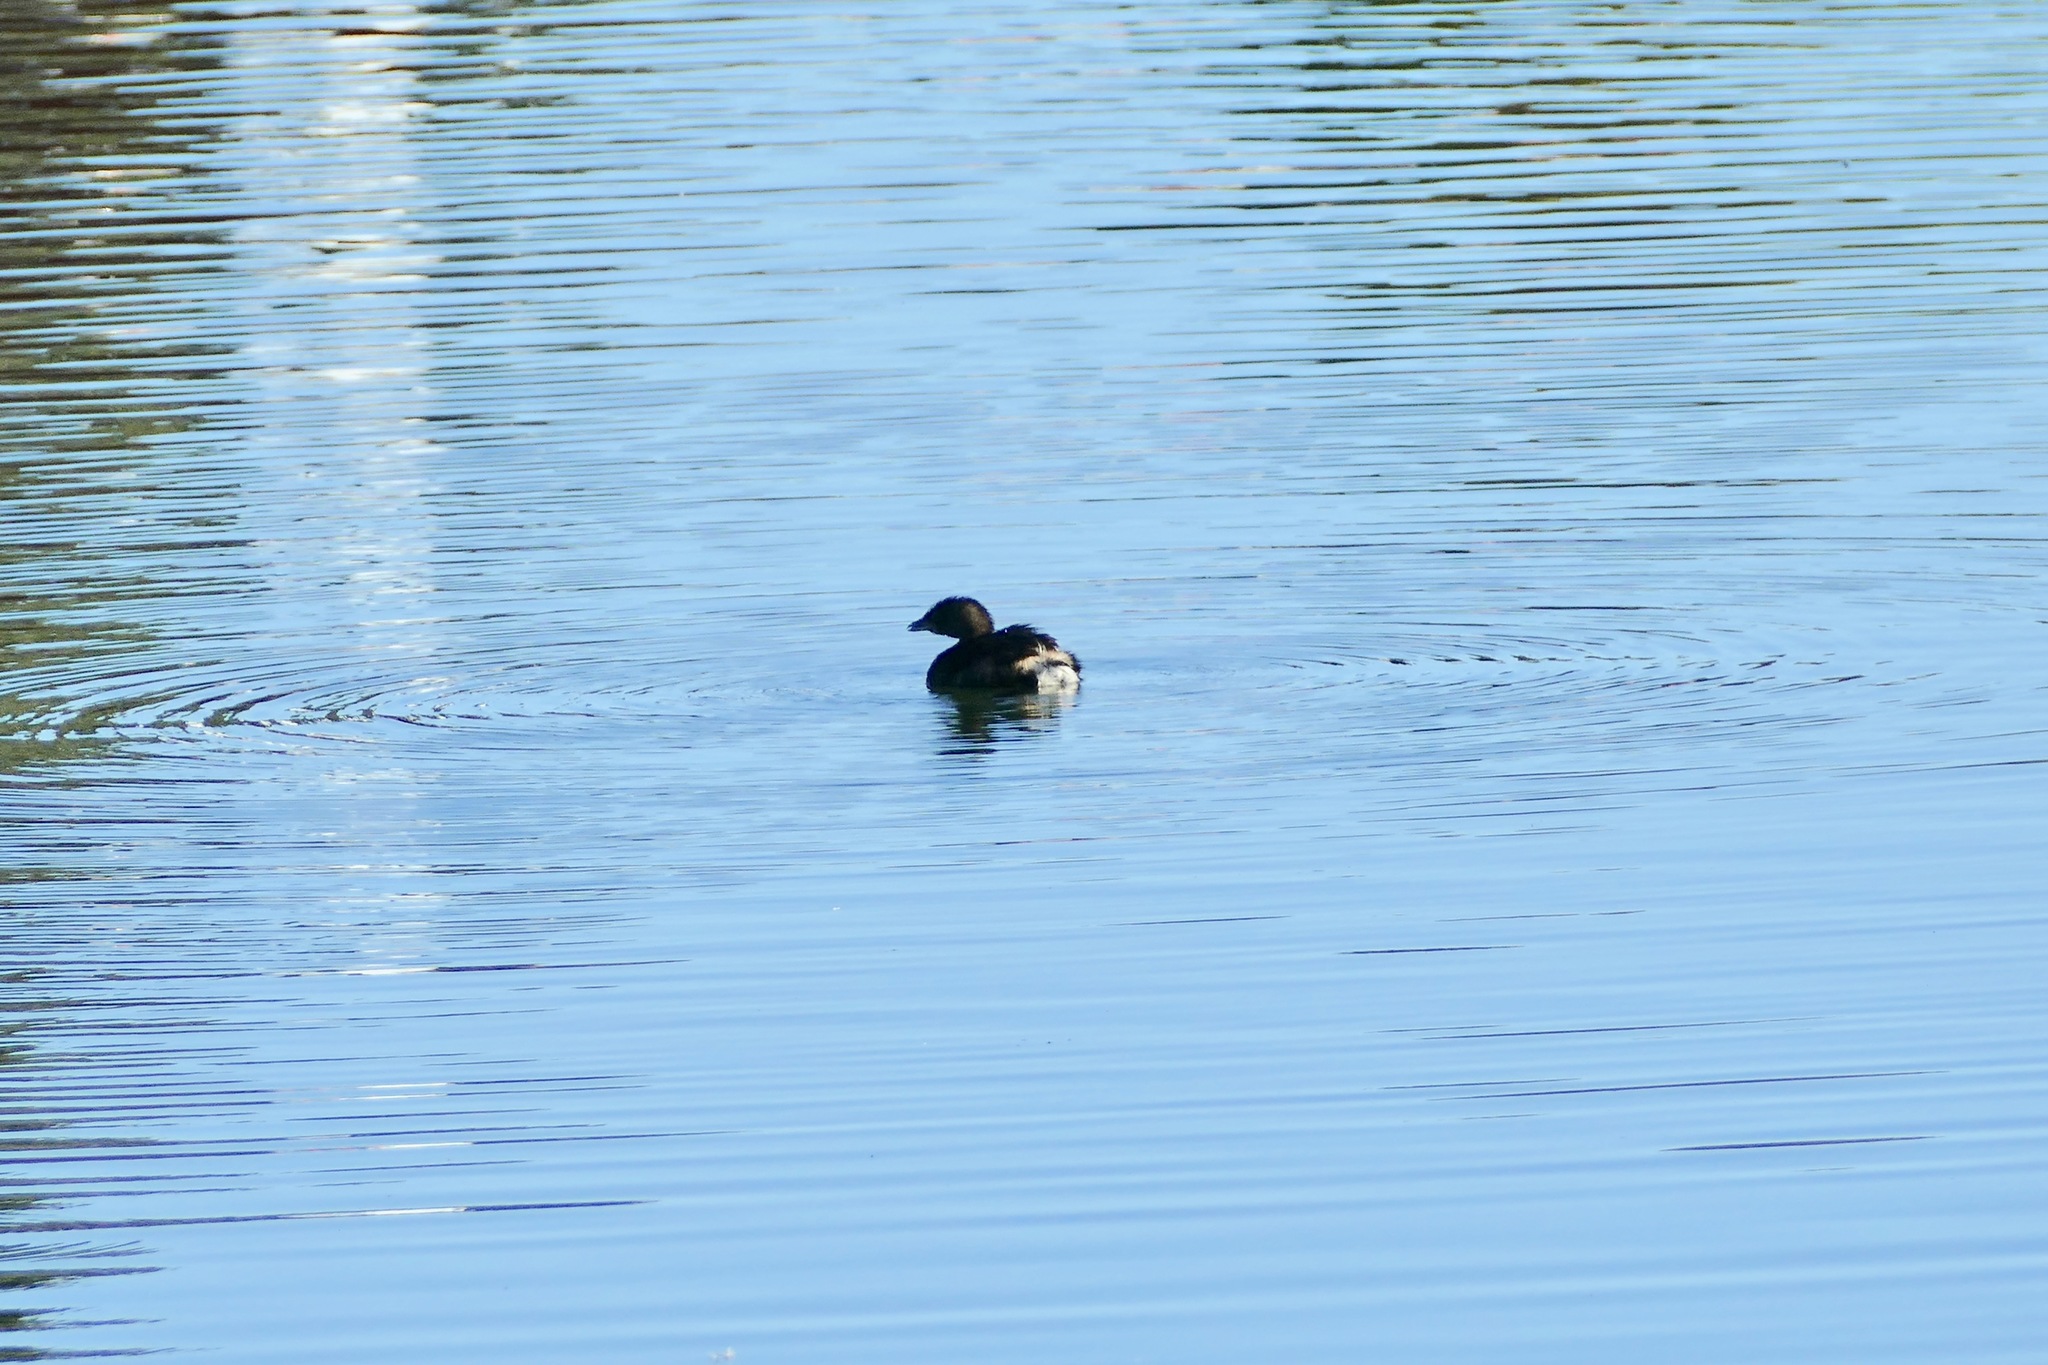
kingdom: Animalia
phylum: Chordata
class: Aves
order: Podicipediformes
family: Podicipedidae
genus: Podilymbus
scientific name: Podilymbus podiceps
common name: Pied-billed grebe
